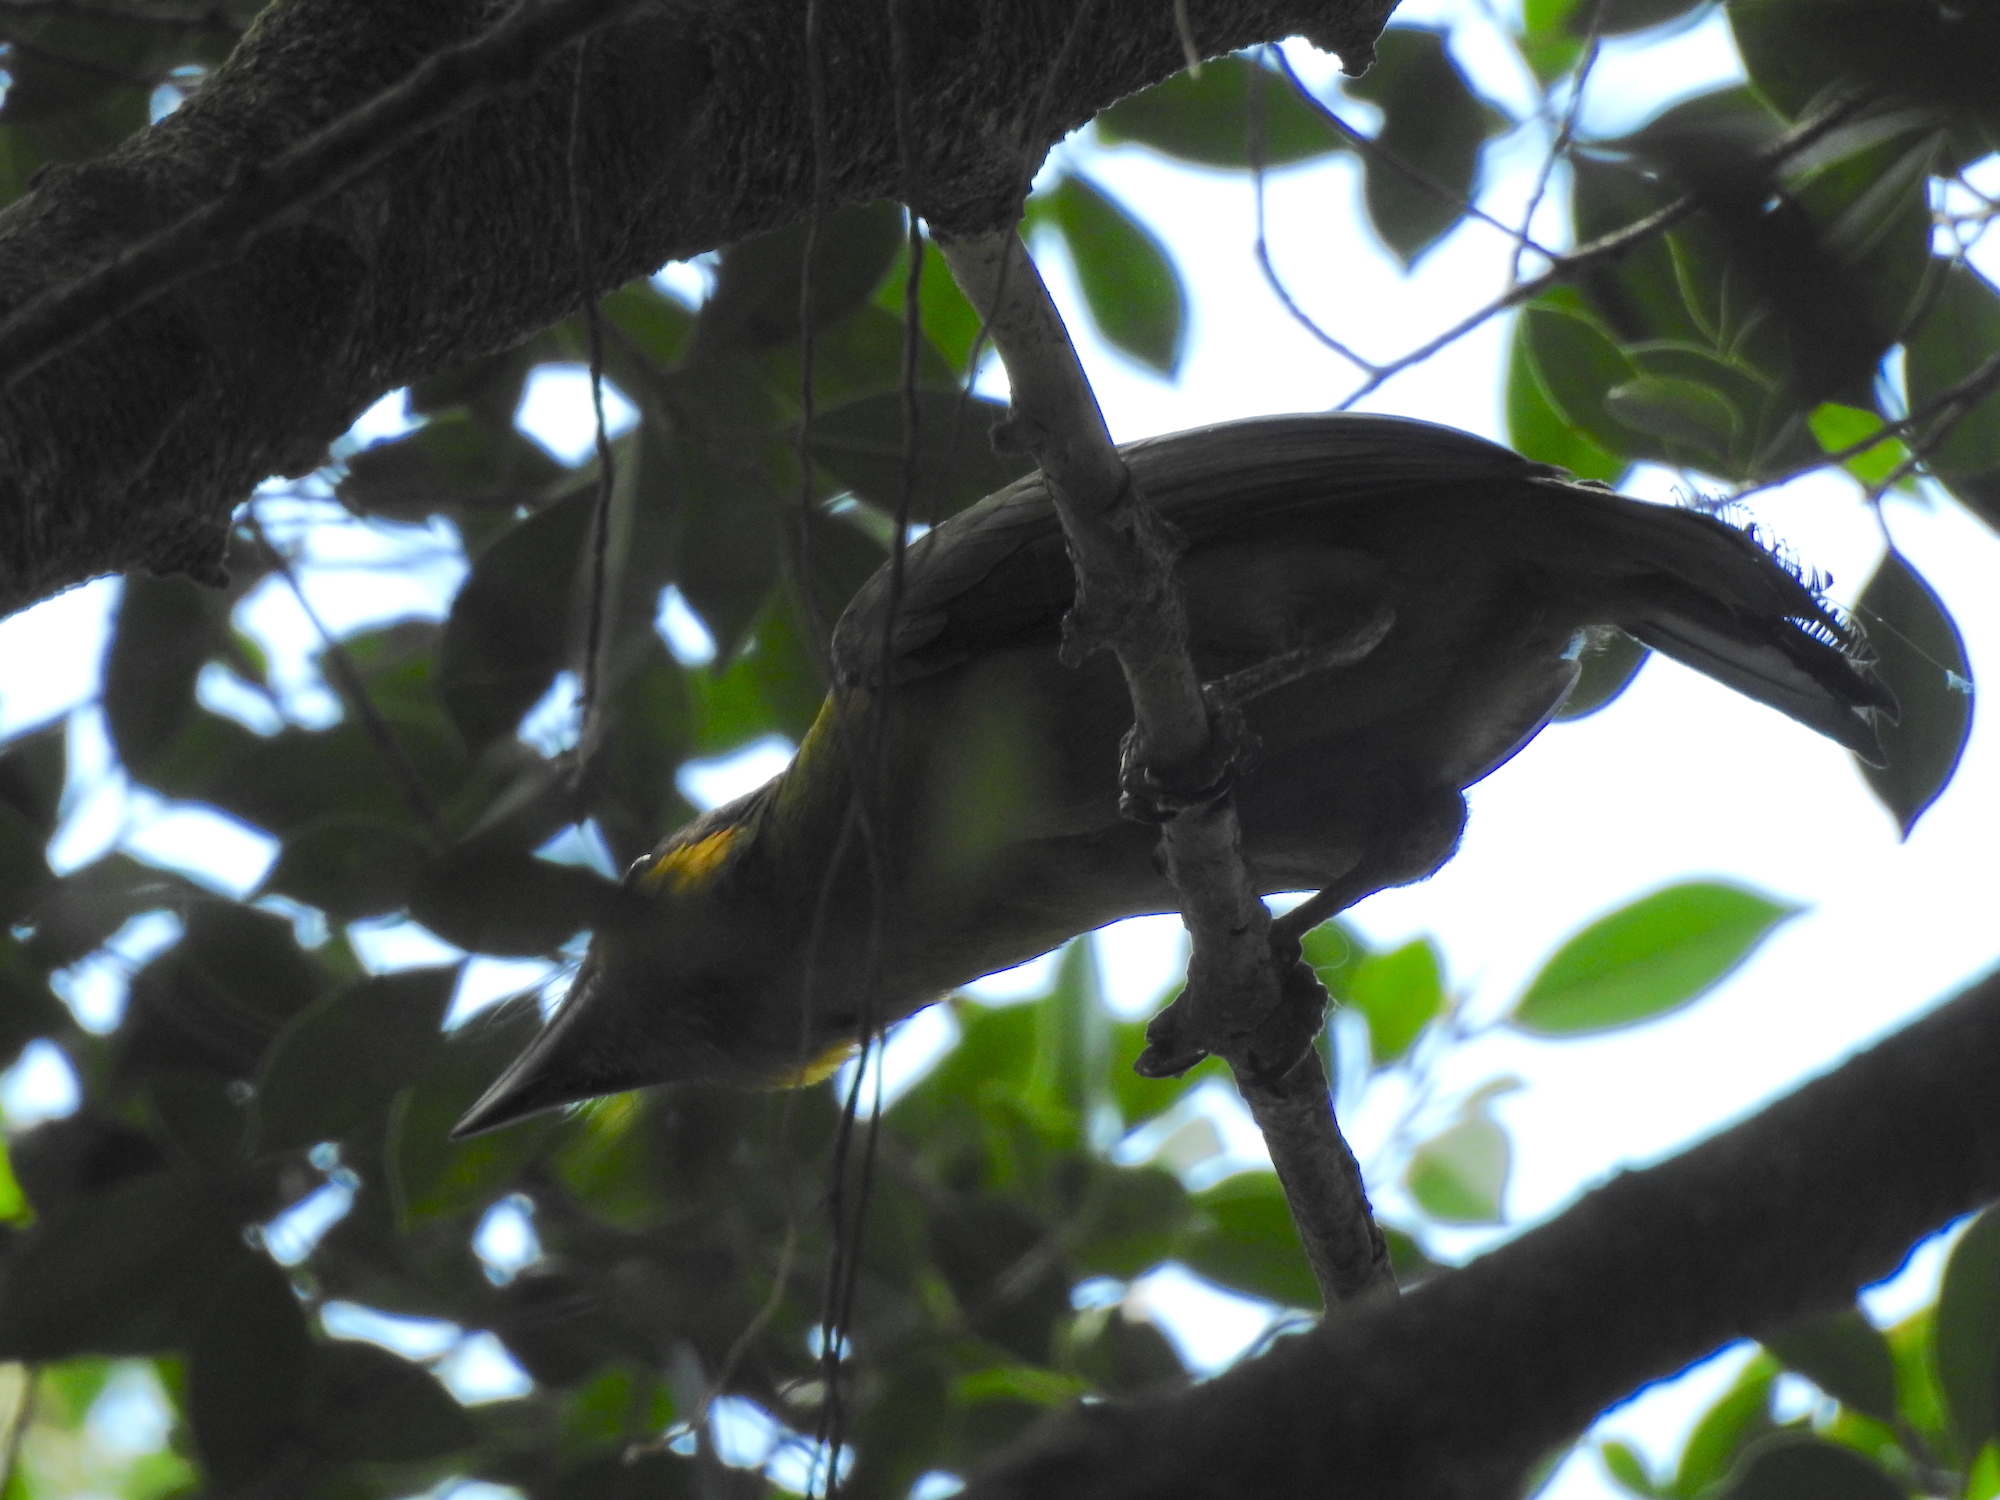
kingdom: Animalia
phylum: Chordata
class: Aves
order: Piciformes
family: Megalaimidae
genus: Psilopogon
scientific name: Psilopogon chrysopogon
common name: Golden-whiskered barbet
